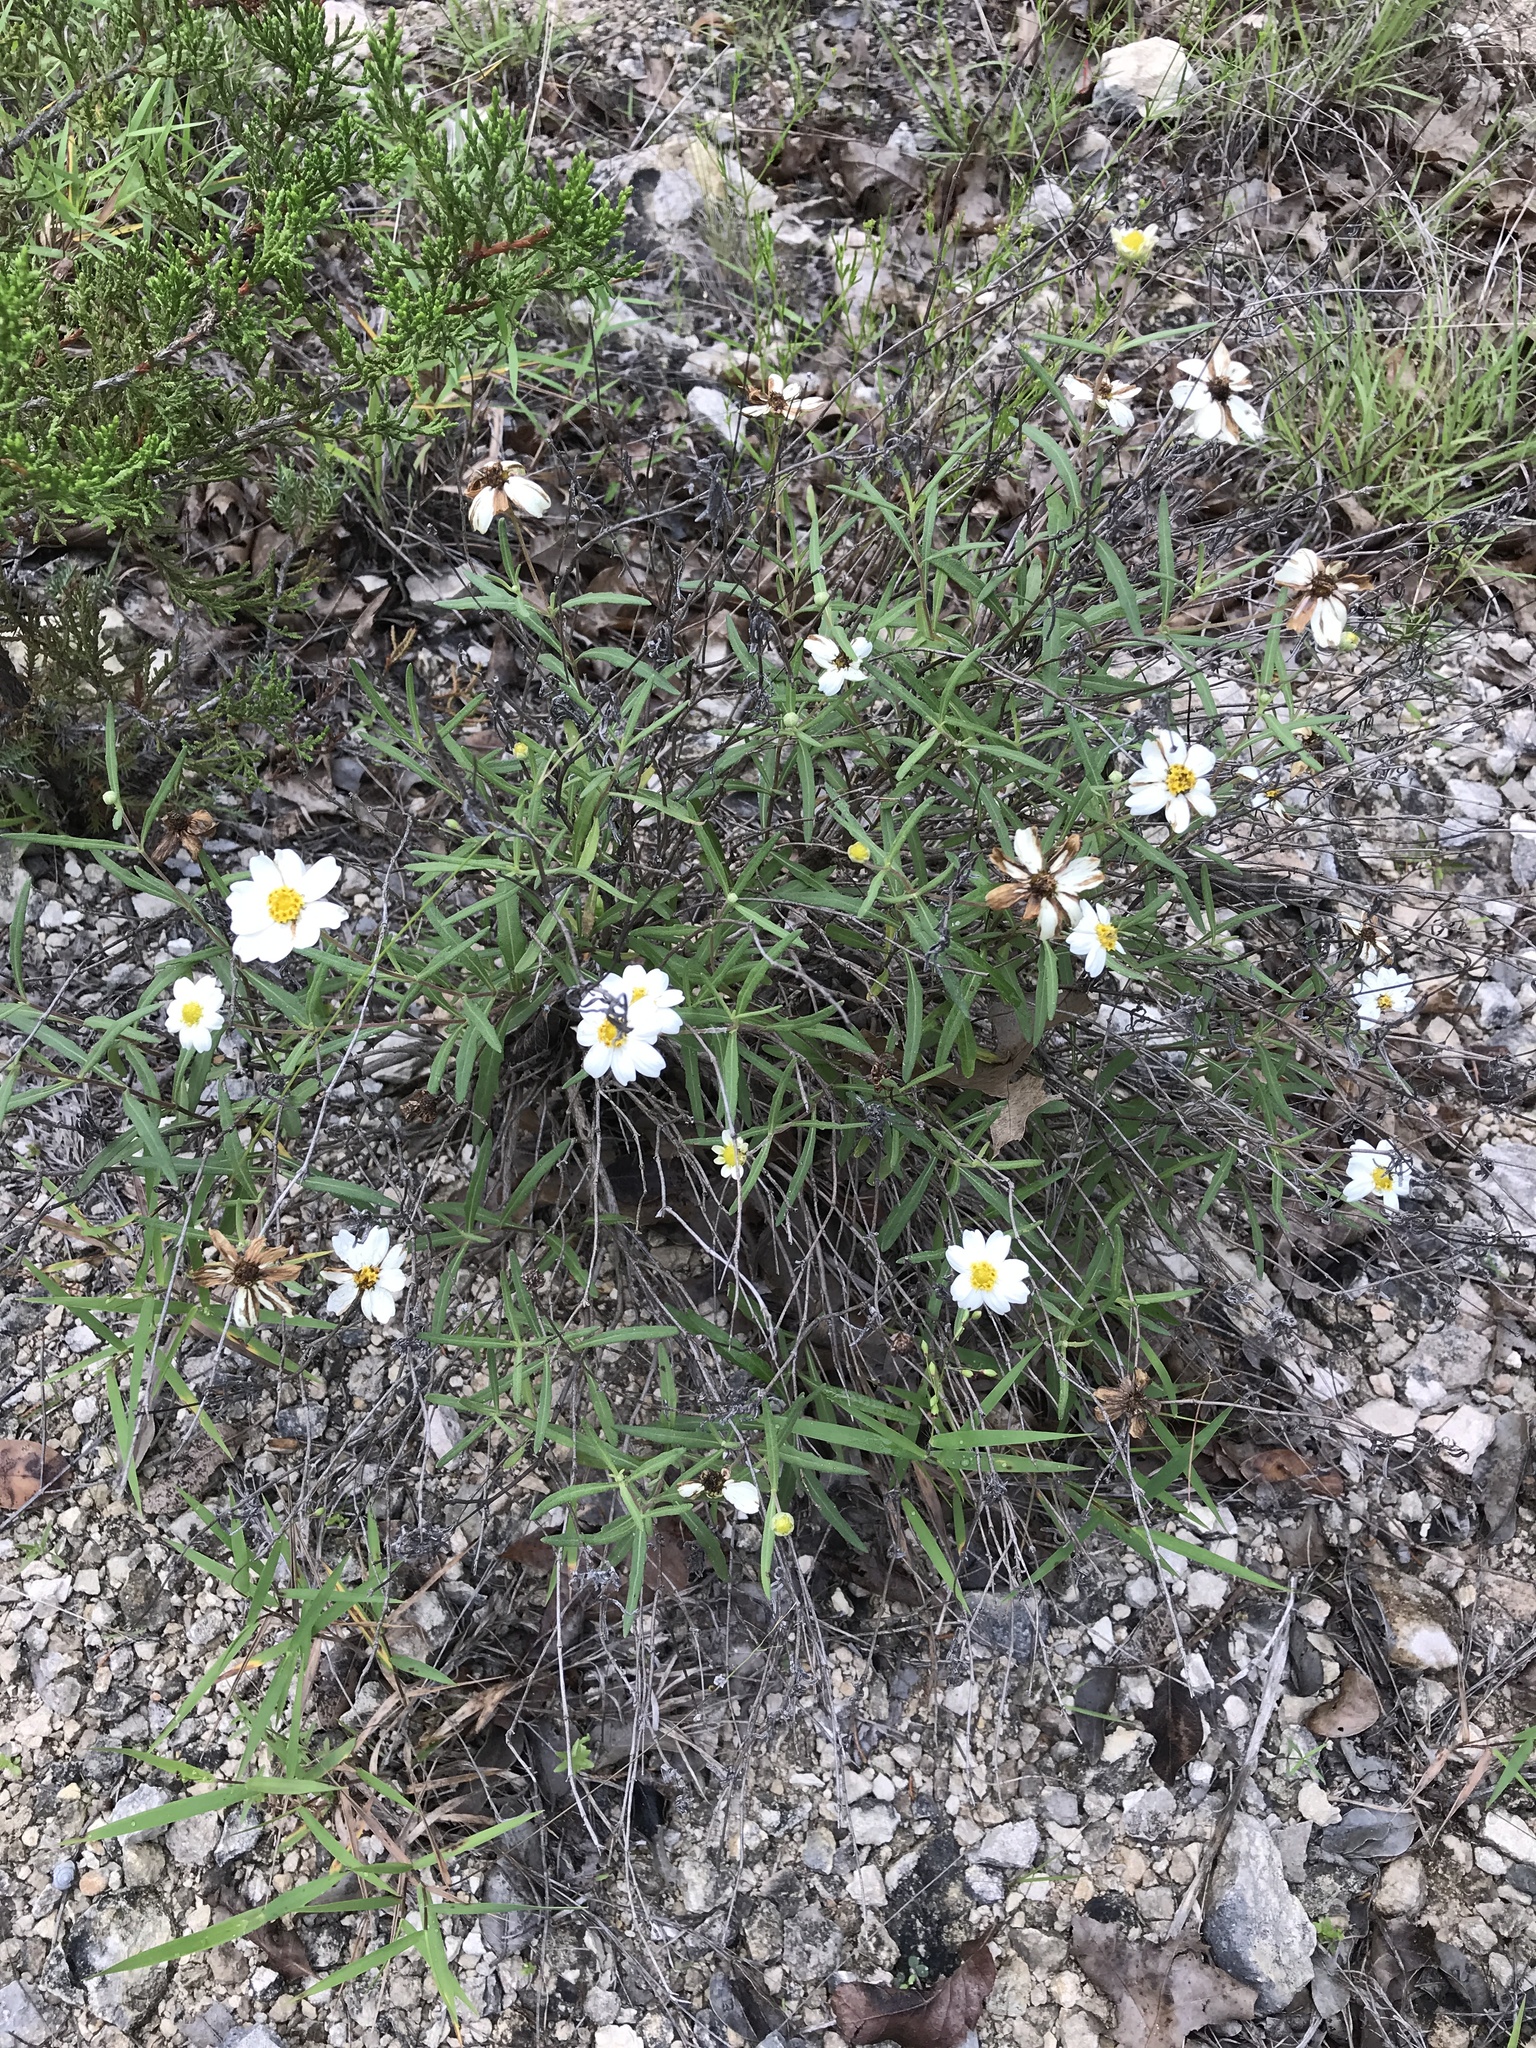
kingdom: Plantae
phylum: Tracheophyta
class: Magnoliopsida
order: Asterales
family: Asteraceae
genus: Melampodium
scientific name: Melampodium leucanthum
